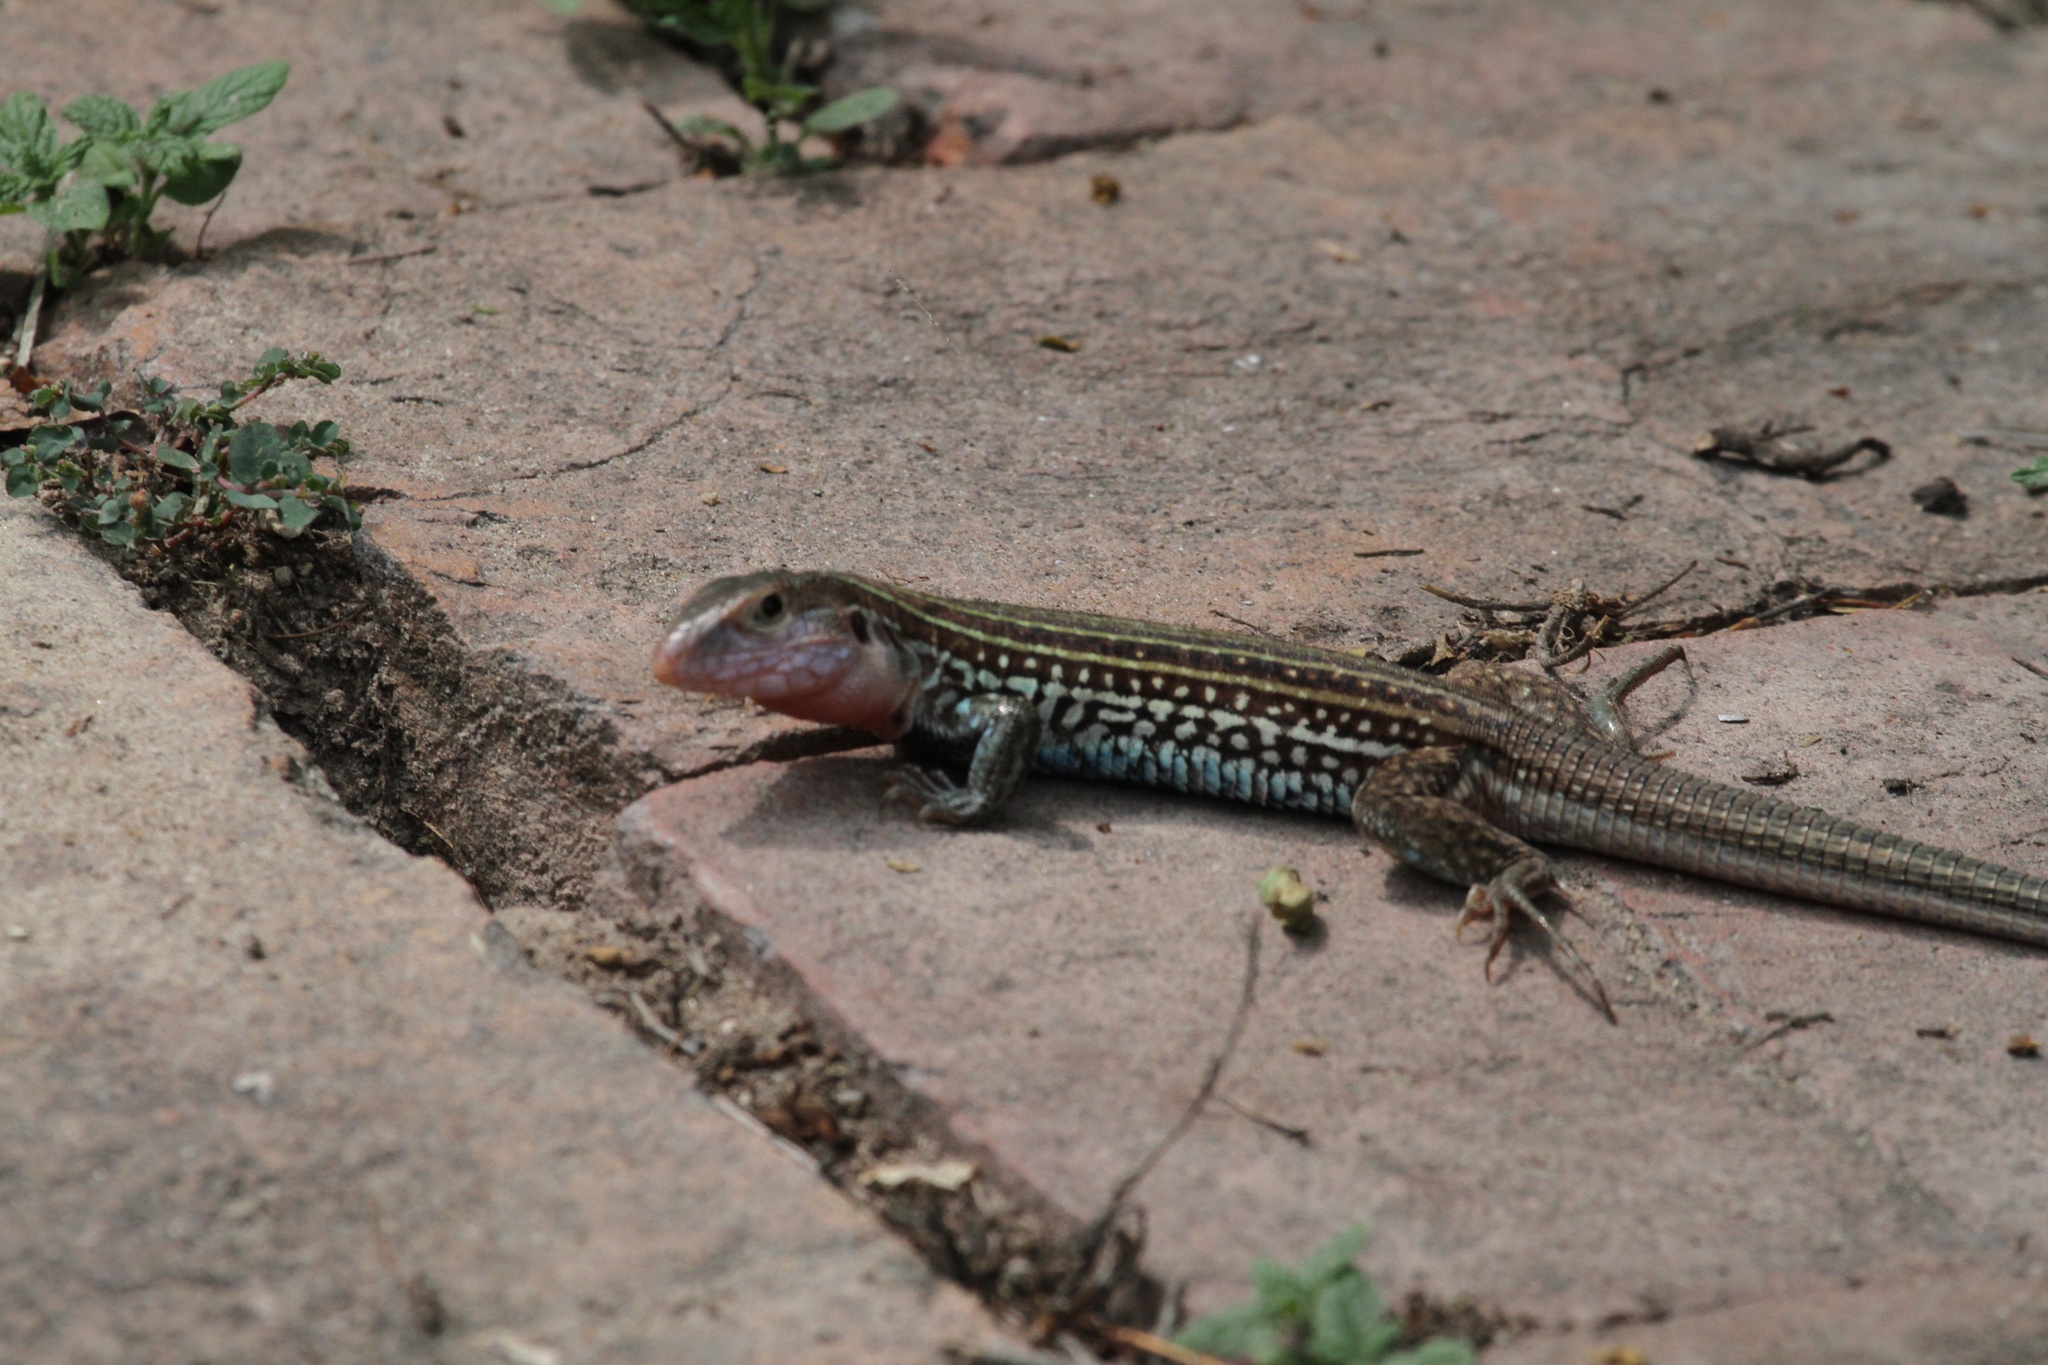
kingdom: Animalia
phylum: Chordata
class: Squamata
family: Teiidae
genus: Aspidoscelis
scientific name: Aspidoscelis gularis
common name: Eastern spotted whiptail
